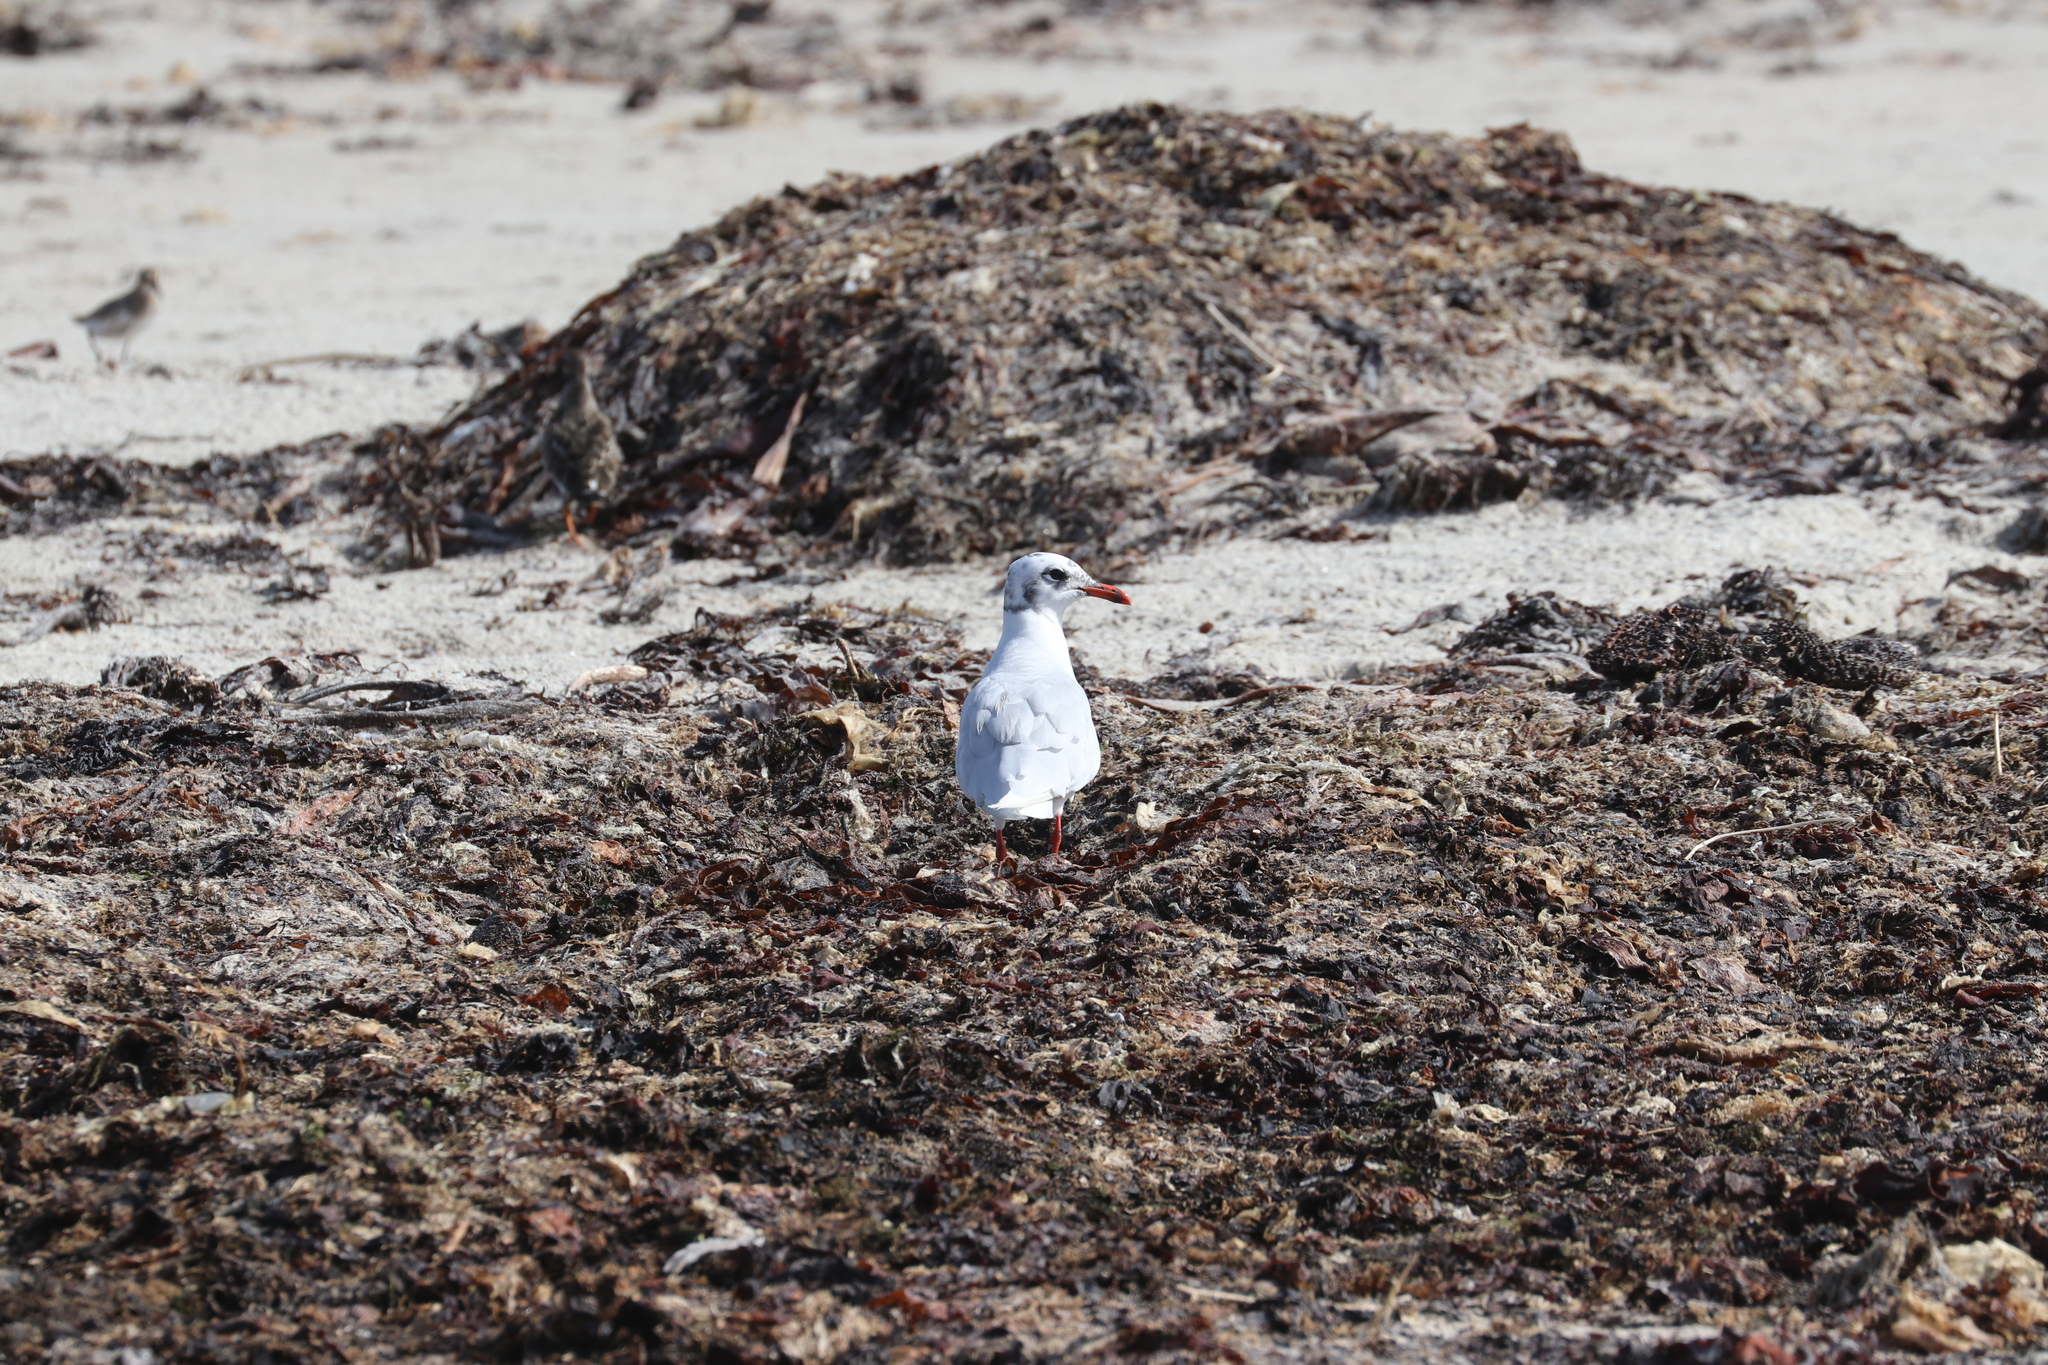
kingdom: Animalia
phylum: Chordata
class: Aves
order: Charadriiformes
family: Laridae
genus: Ichthyaetus
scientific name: Ichthyaetus melanocephalus
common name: Mediterranean gull
